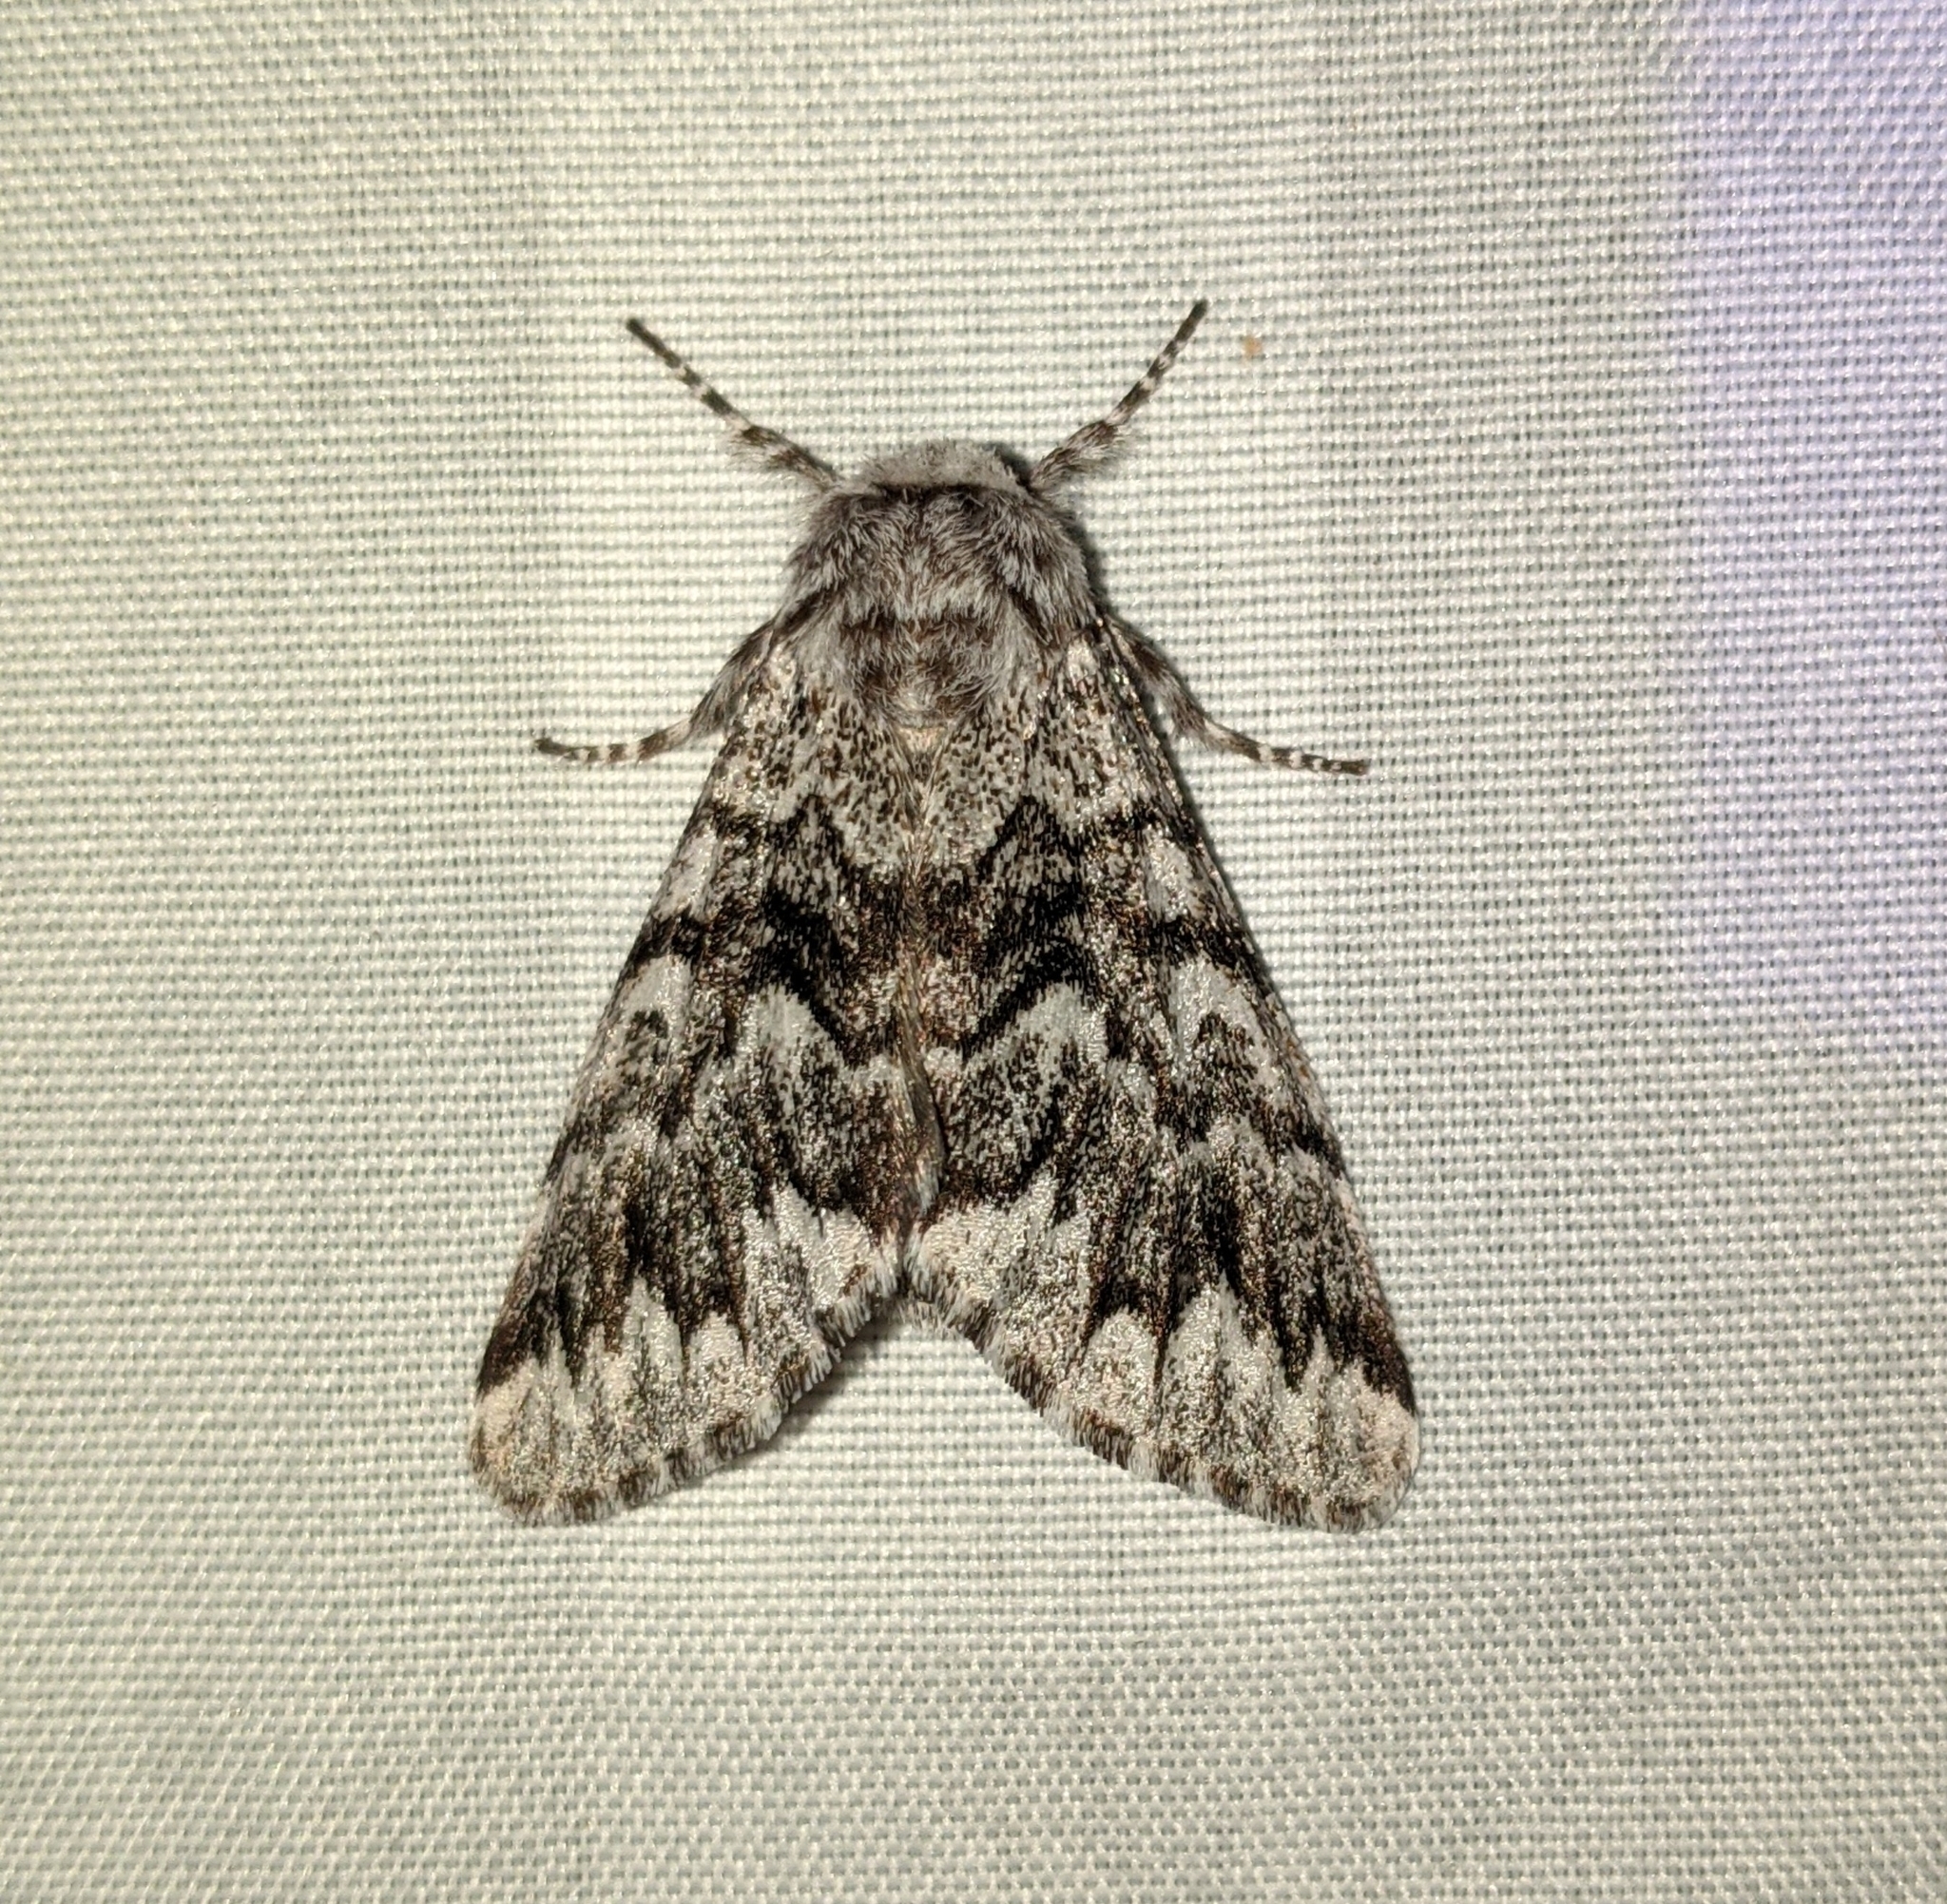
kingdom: Animalia
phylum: Arthropoda
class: Insecta
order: Lepidoptera
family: Noctuidae
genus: Panthea
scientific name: Panthea virginarius
